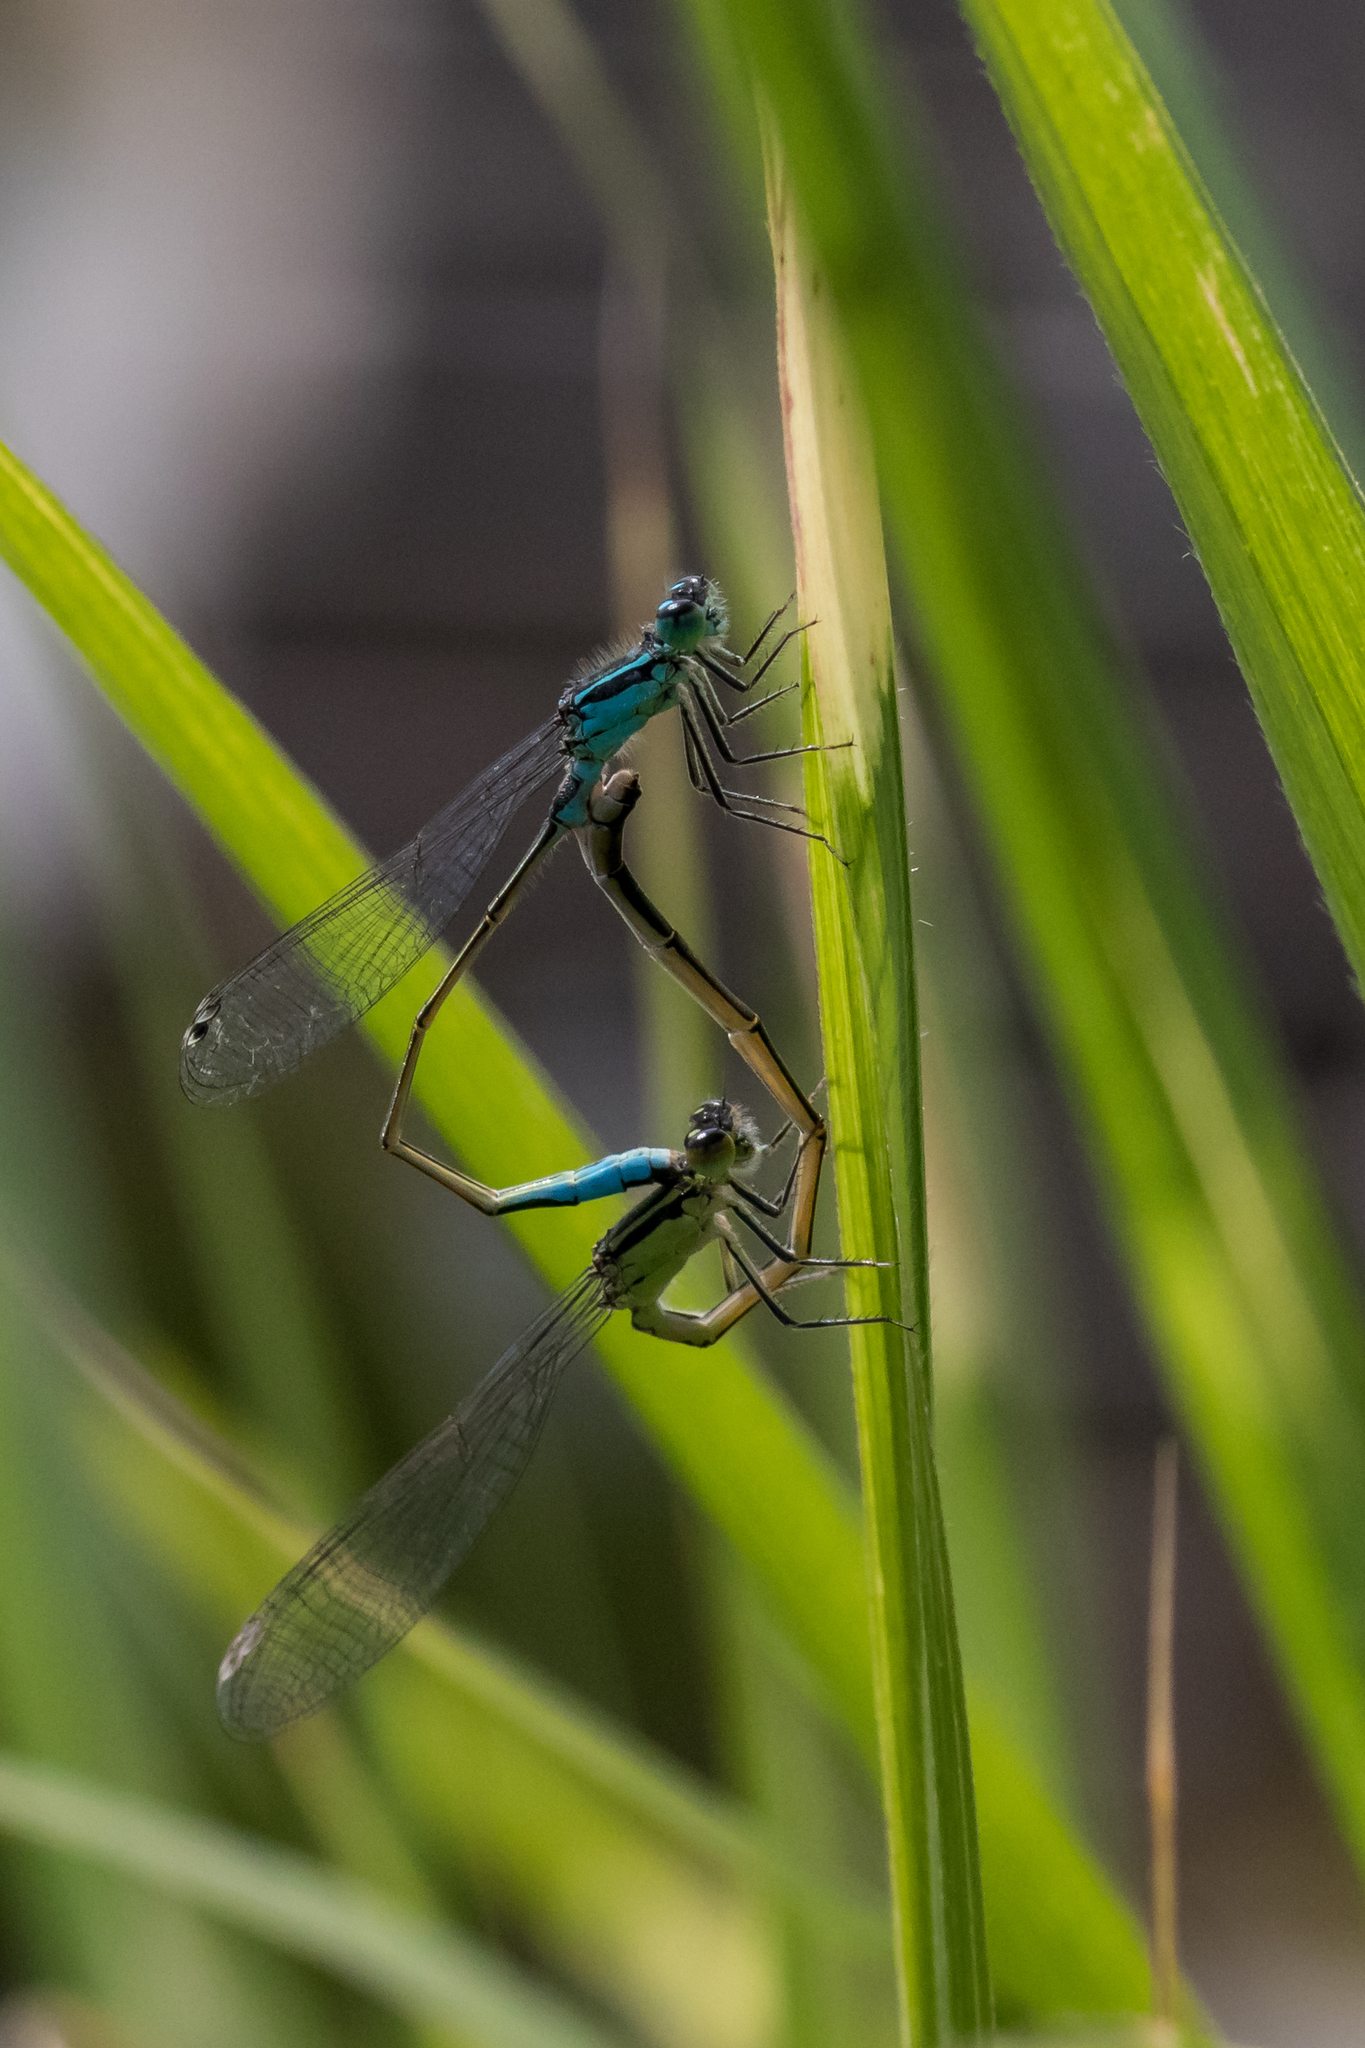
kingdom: Animalia
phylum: Arthropoda
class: Insecta
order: Odonata
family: Coenagrionidae
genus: Ischnura
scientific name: Ischnura elegans
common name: Blue-tailed damselfly
